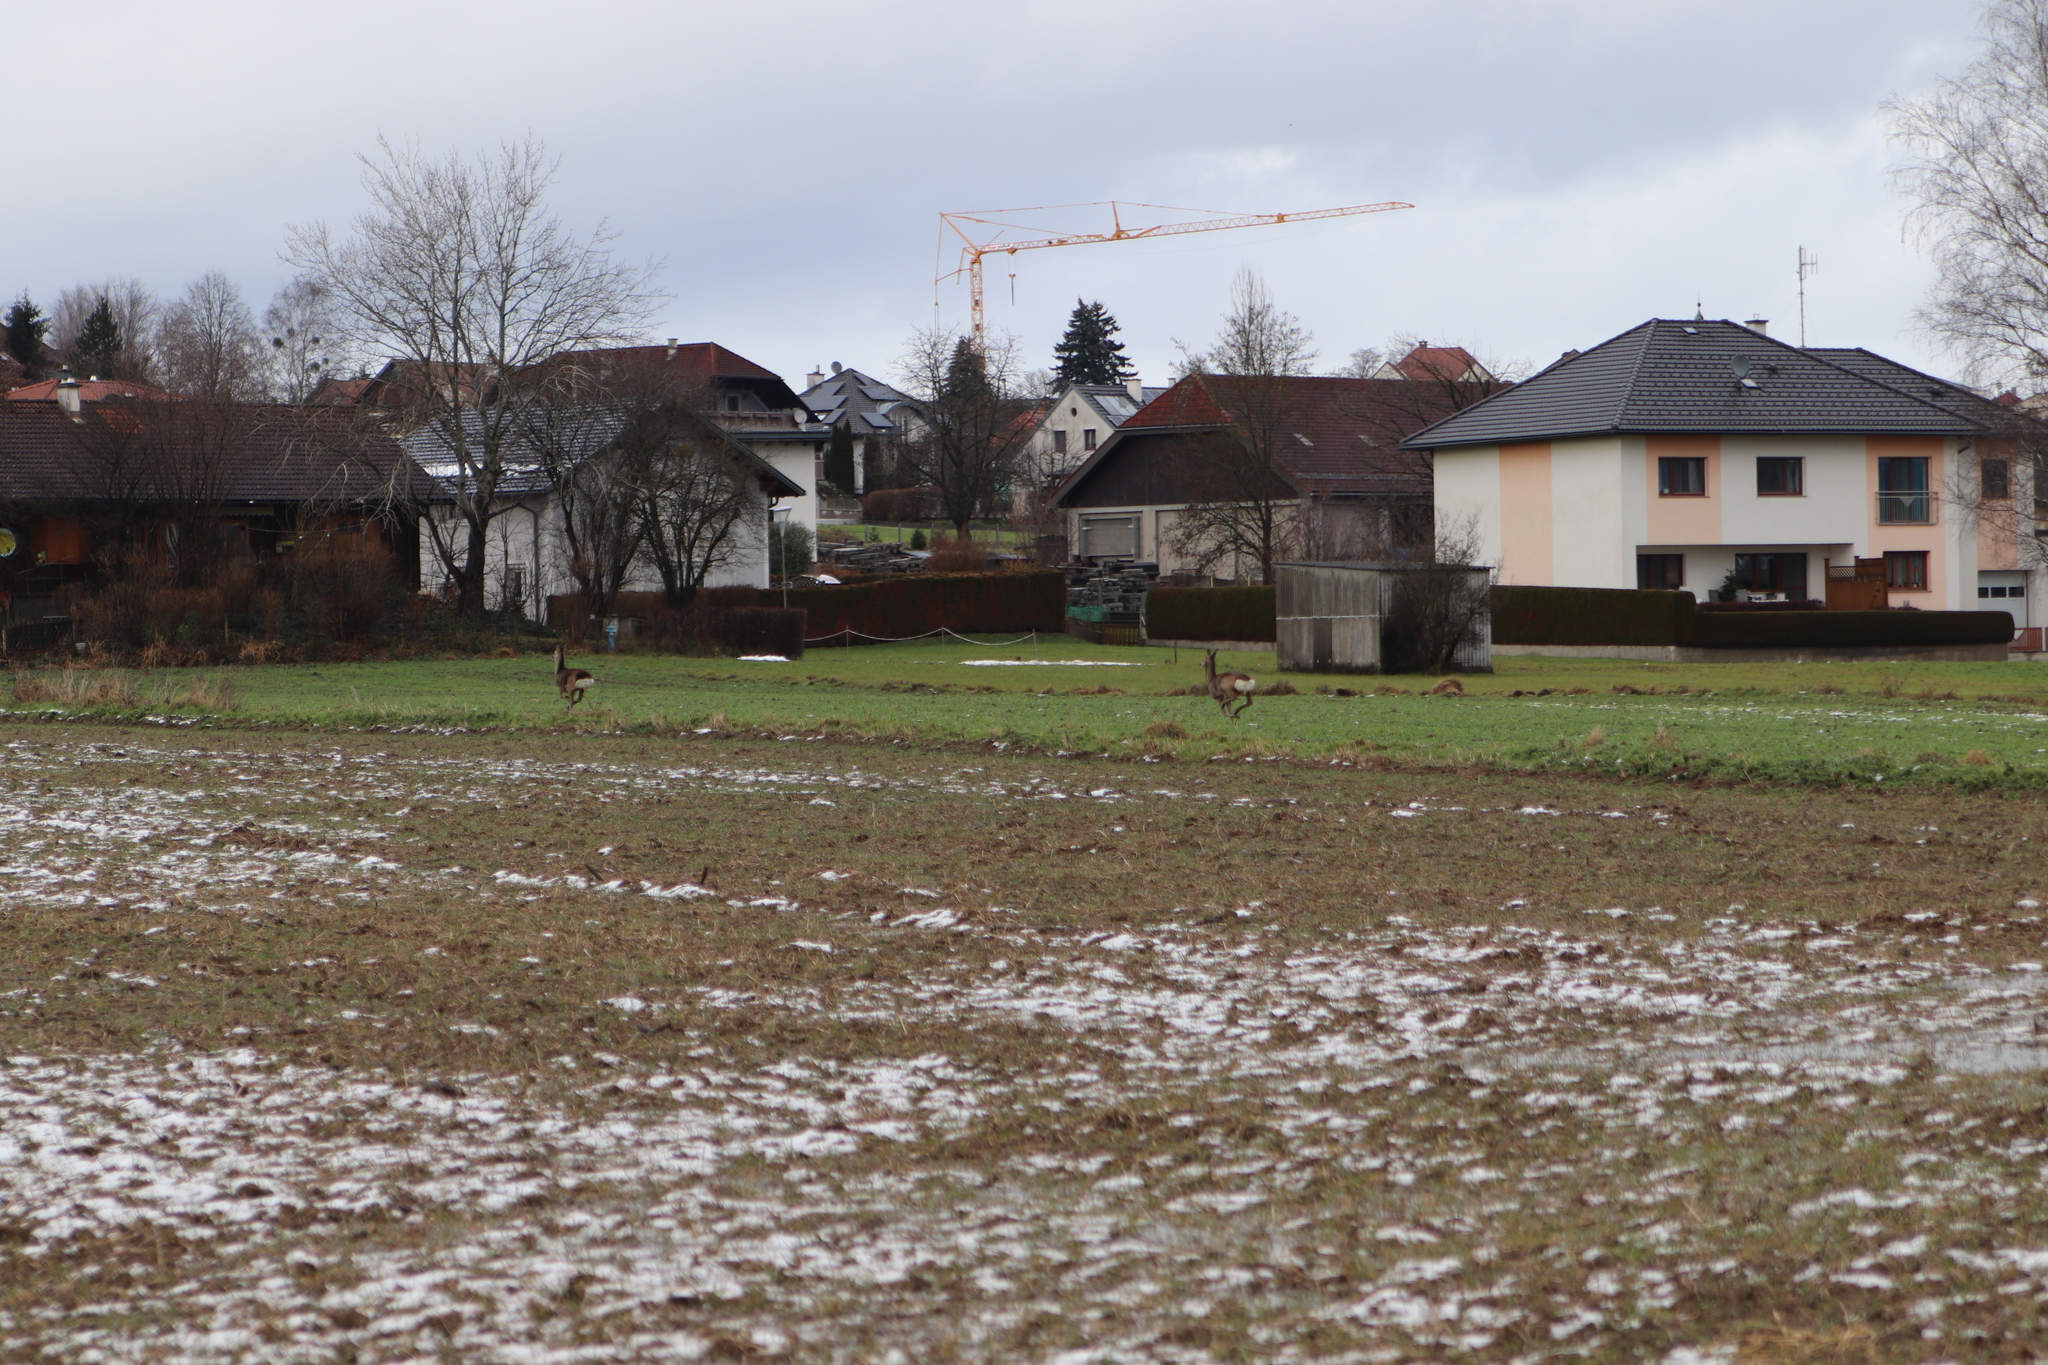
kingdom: Animalia
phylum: Chordata
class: Mammalia
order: Artiodactyla
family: Cervidae
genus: Capreolus
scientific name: Capreolus capreolus
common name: Western roe deer
